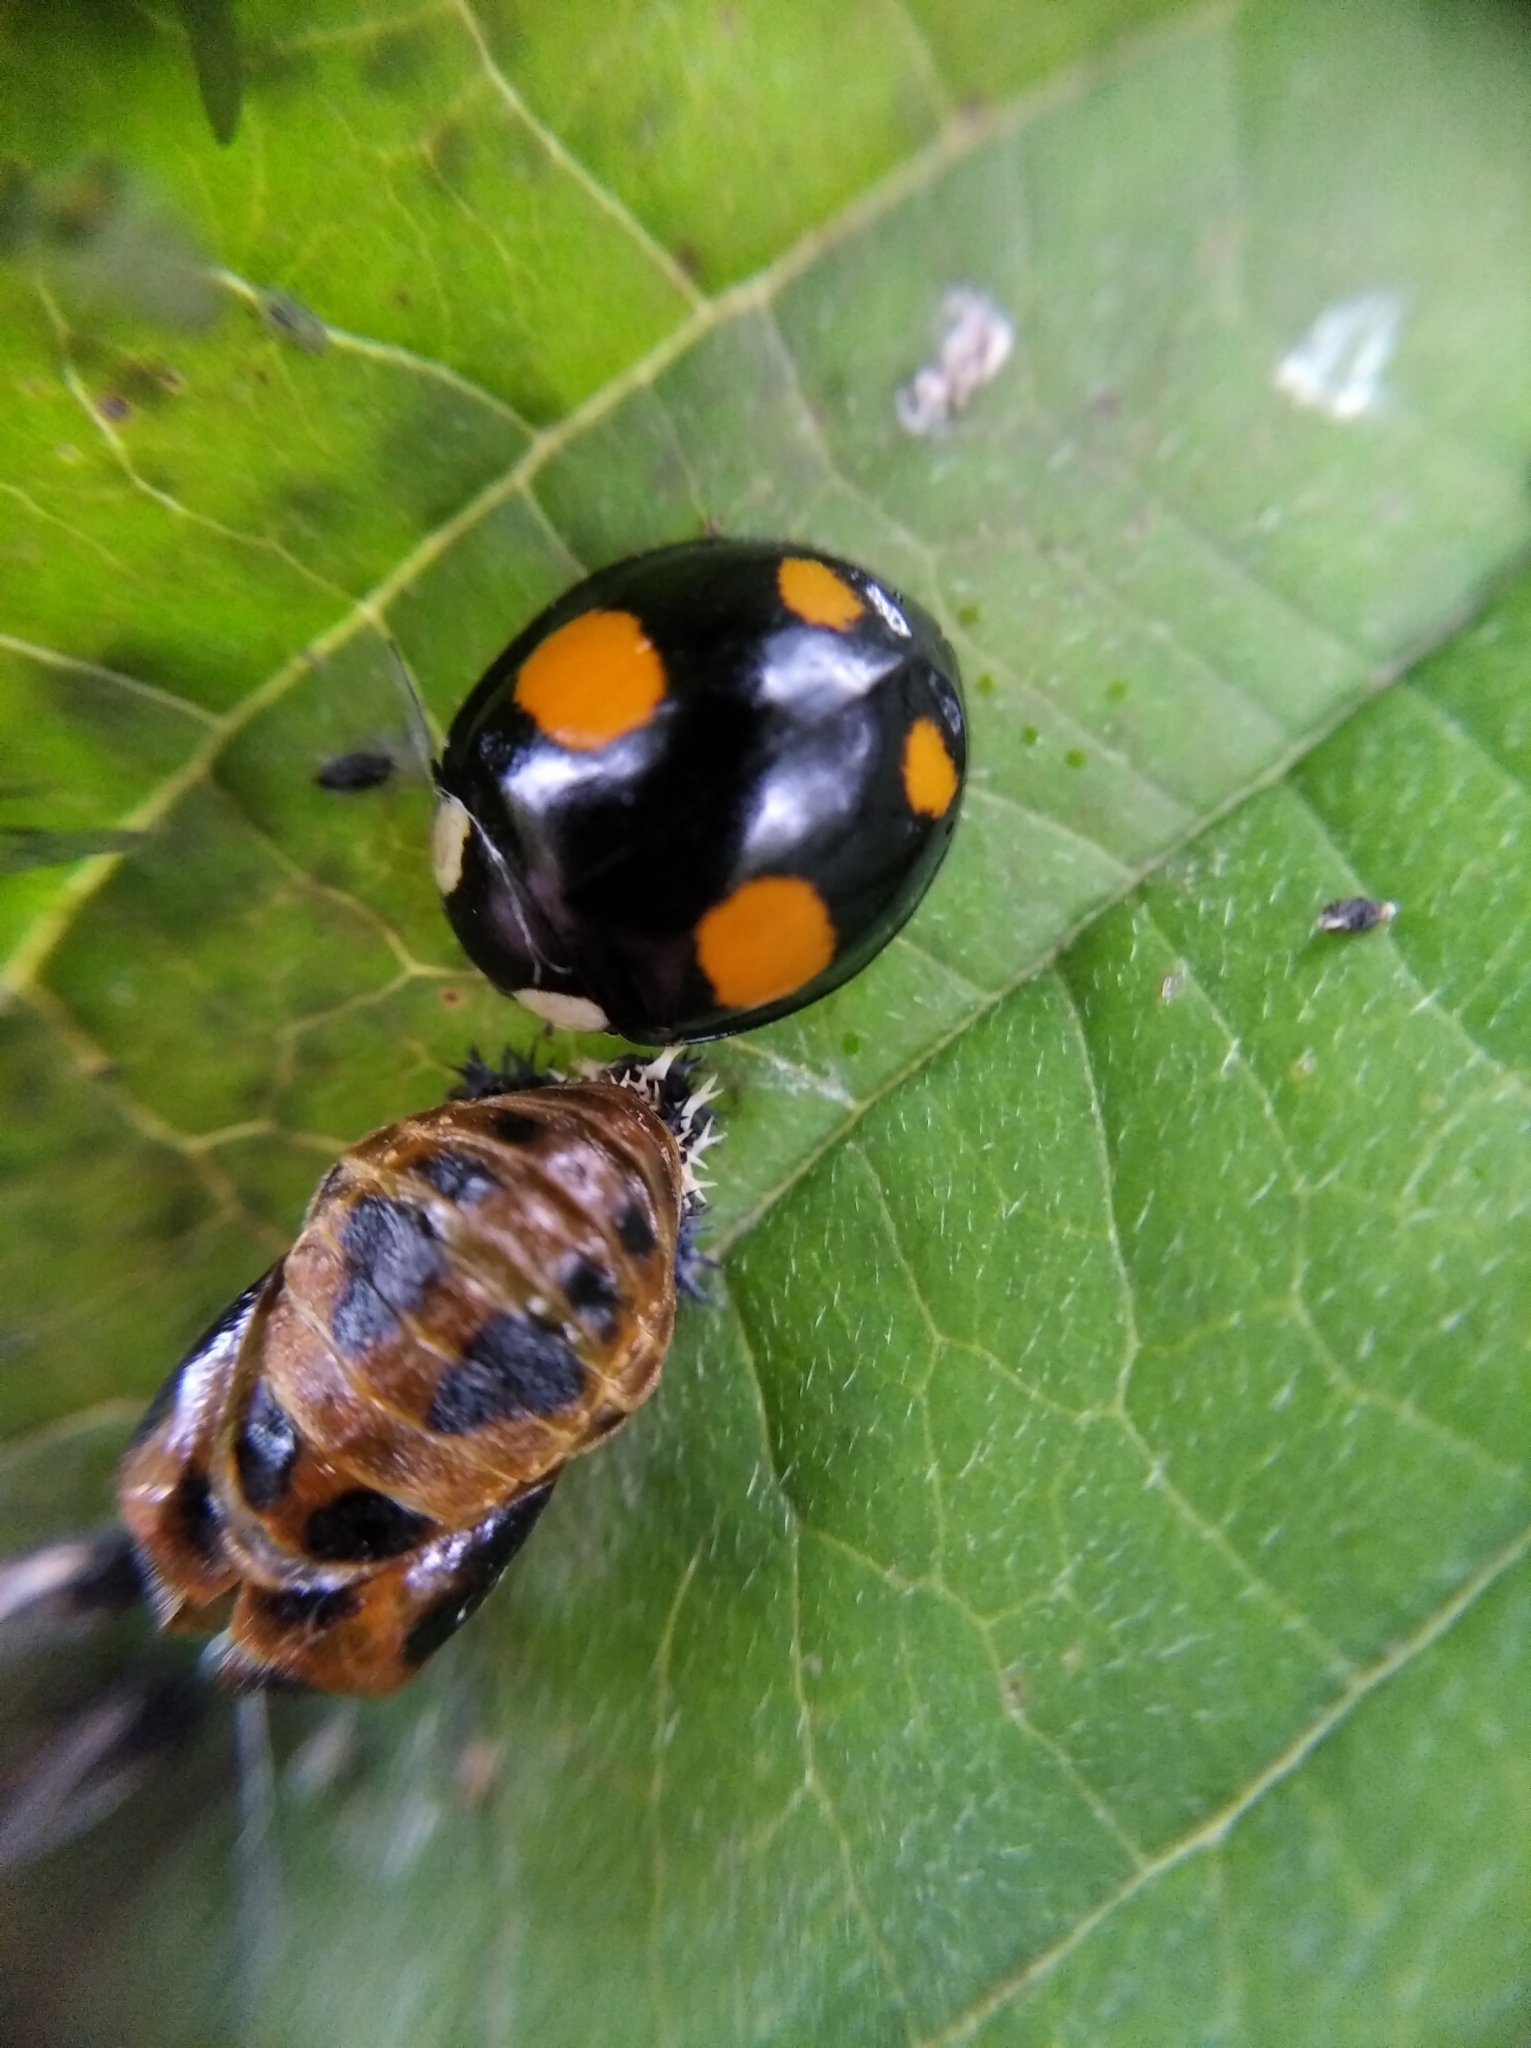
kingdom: Animalia
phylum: Arthropoda
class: Insecta
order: Coleoptera
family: Coccinellidae
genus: Harmonia
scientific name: Harmonia axyridis
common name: Harlequin ladybird
